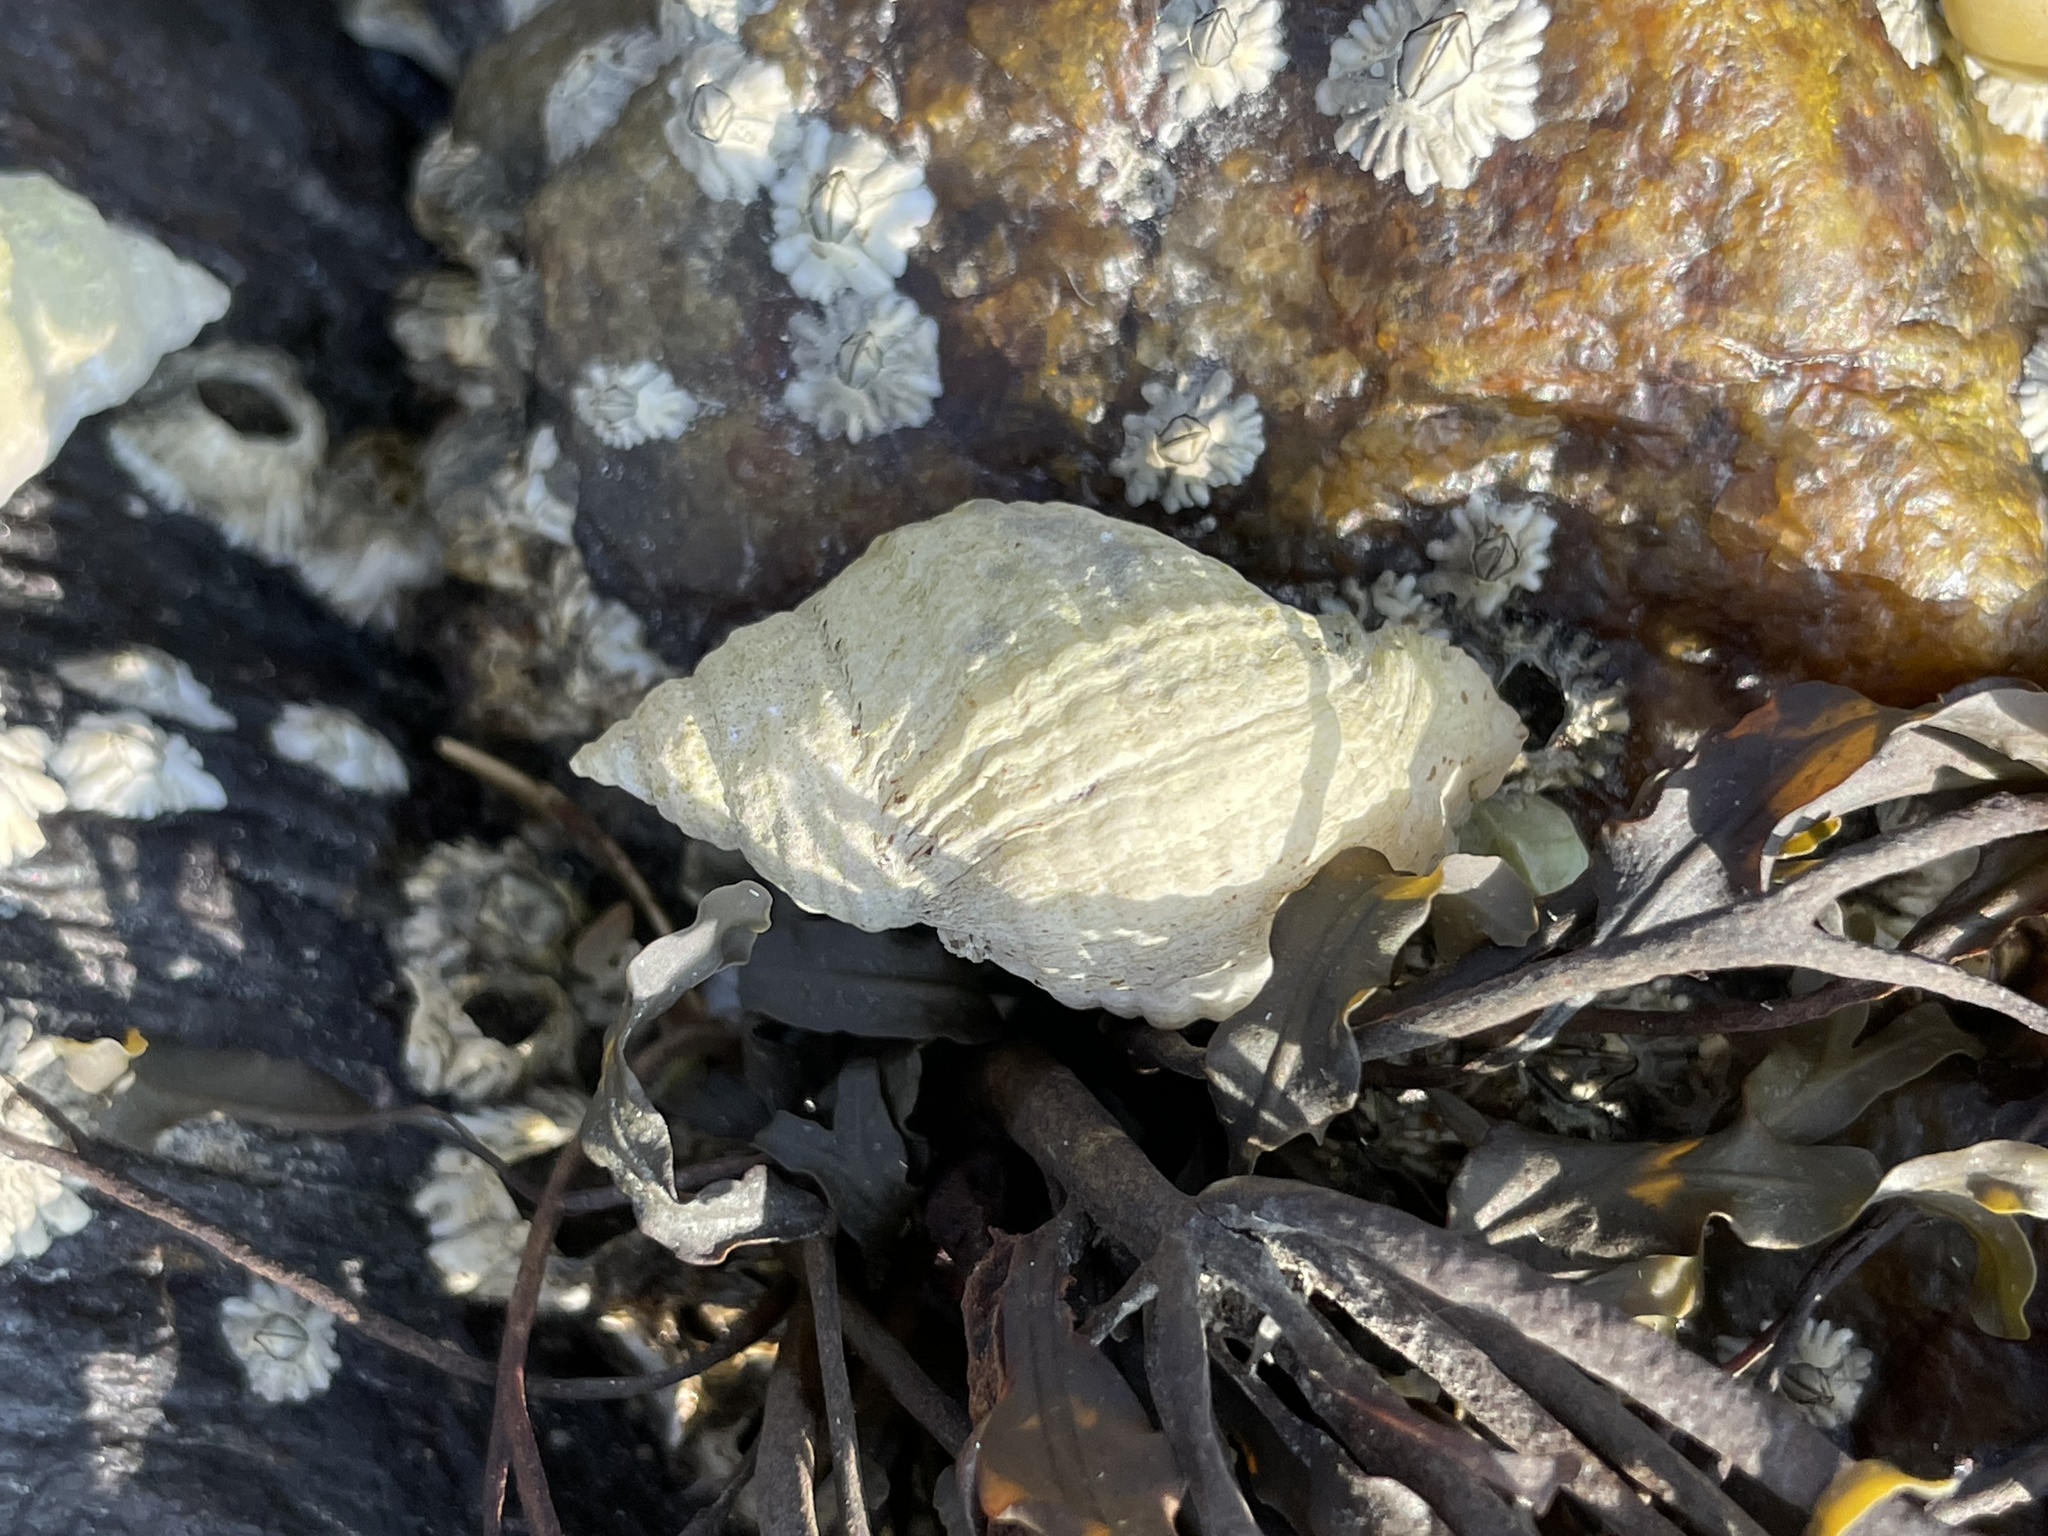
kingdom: Animalia
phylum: Mollusca
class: Gastropoda
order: Neogastropoda
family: Muricidae
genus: Nucella
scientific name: Nucella lapillus
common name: Dog whelk
